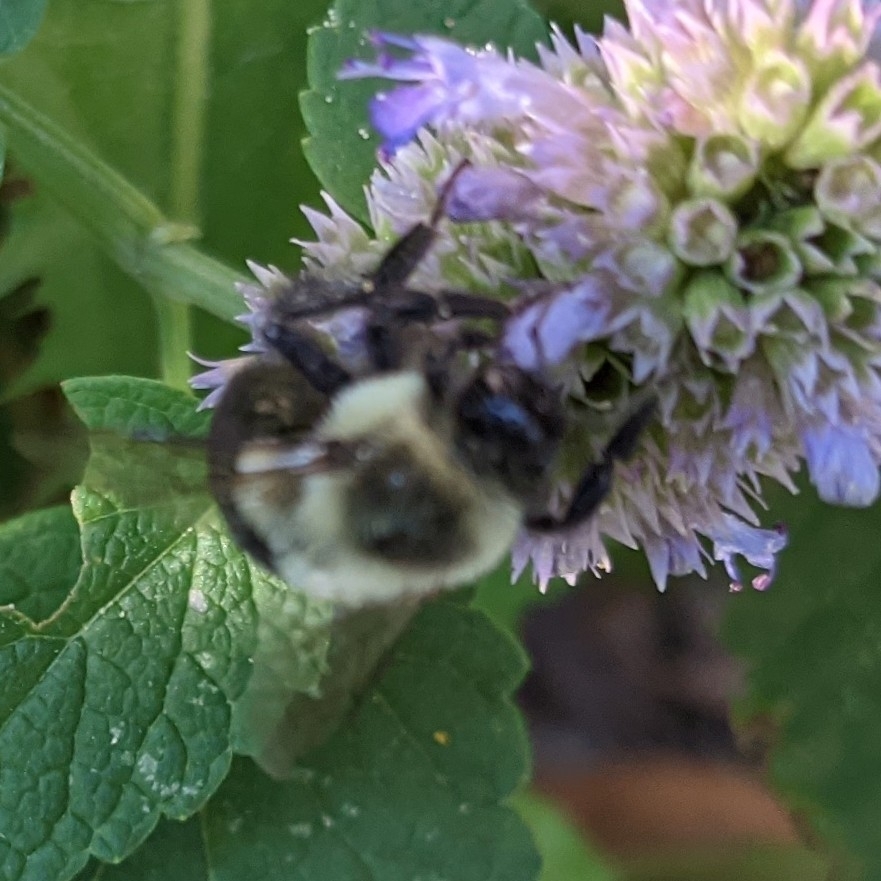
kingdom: Animalia
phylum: Arthropoda
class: Insecta
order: Hymenoptera
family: Apidae
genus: Bombus
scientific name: Bombus impatiens
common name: Common eastern bumble bee
